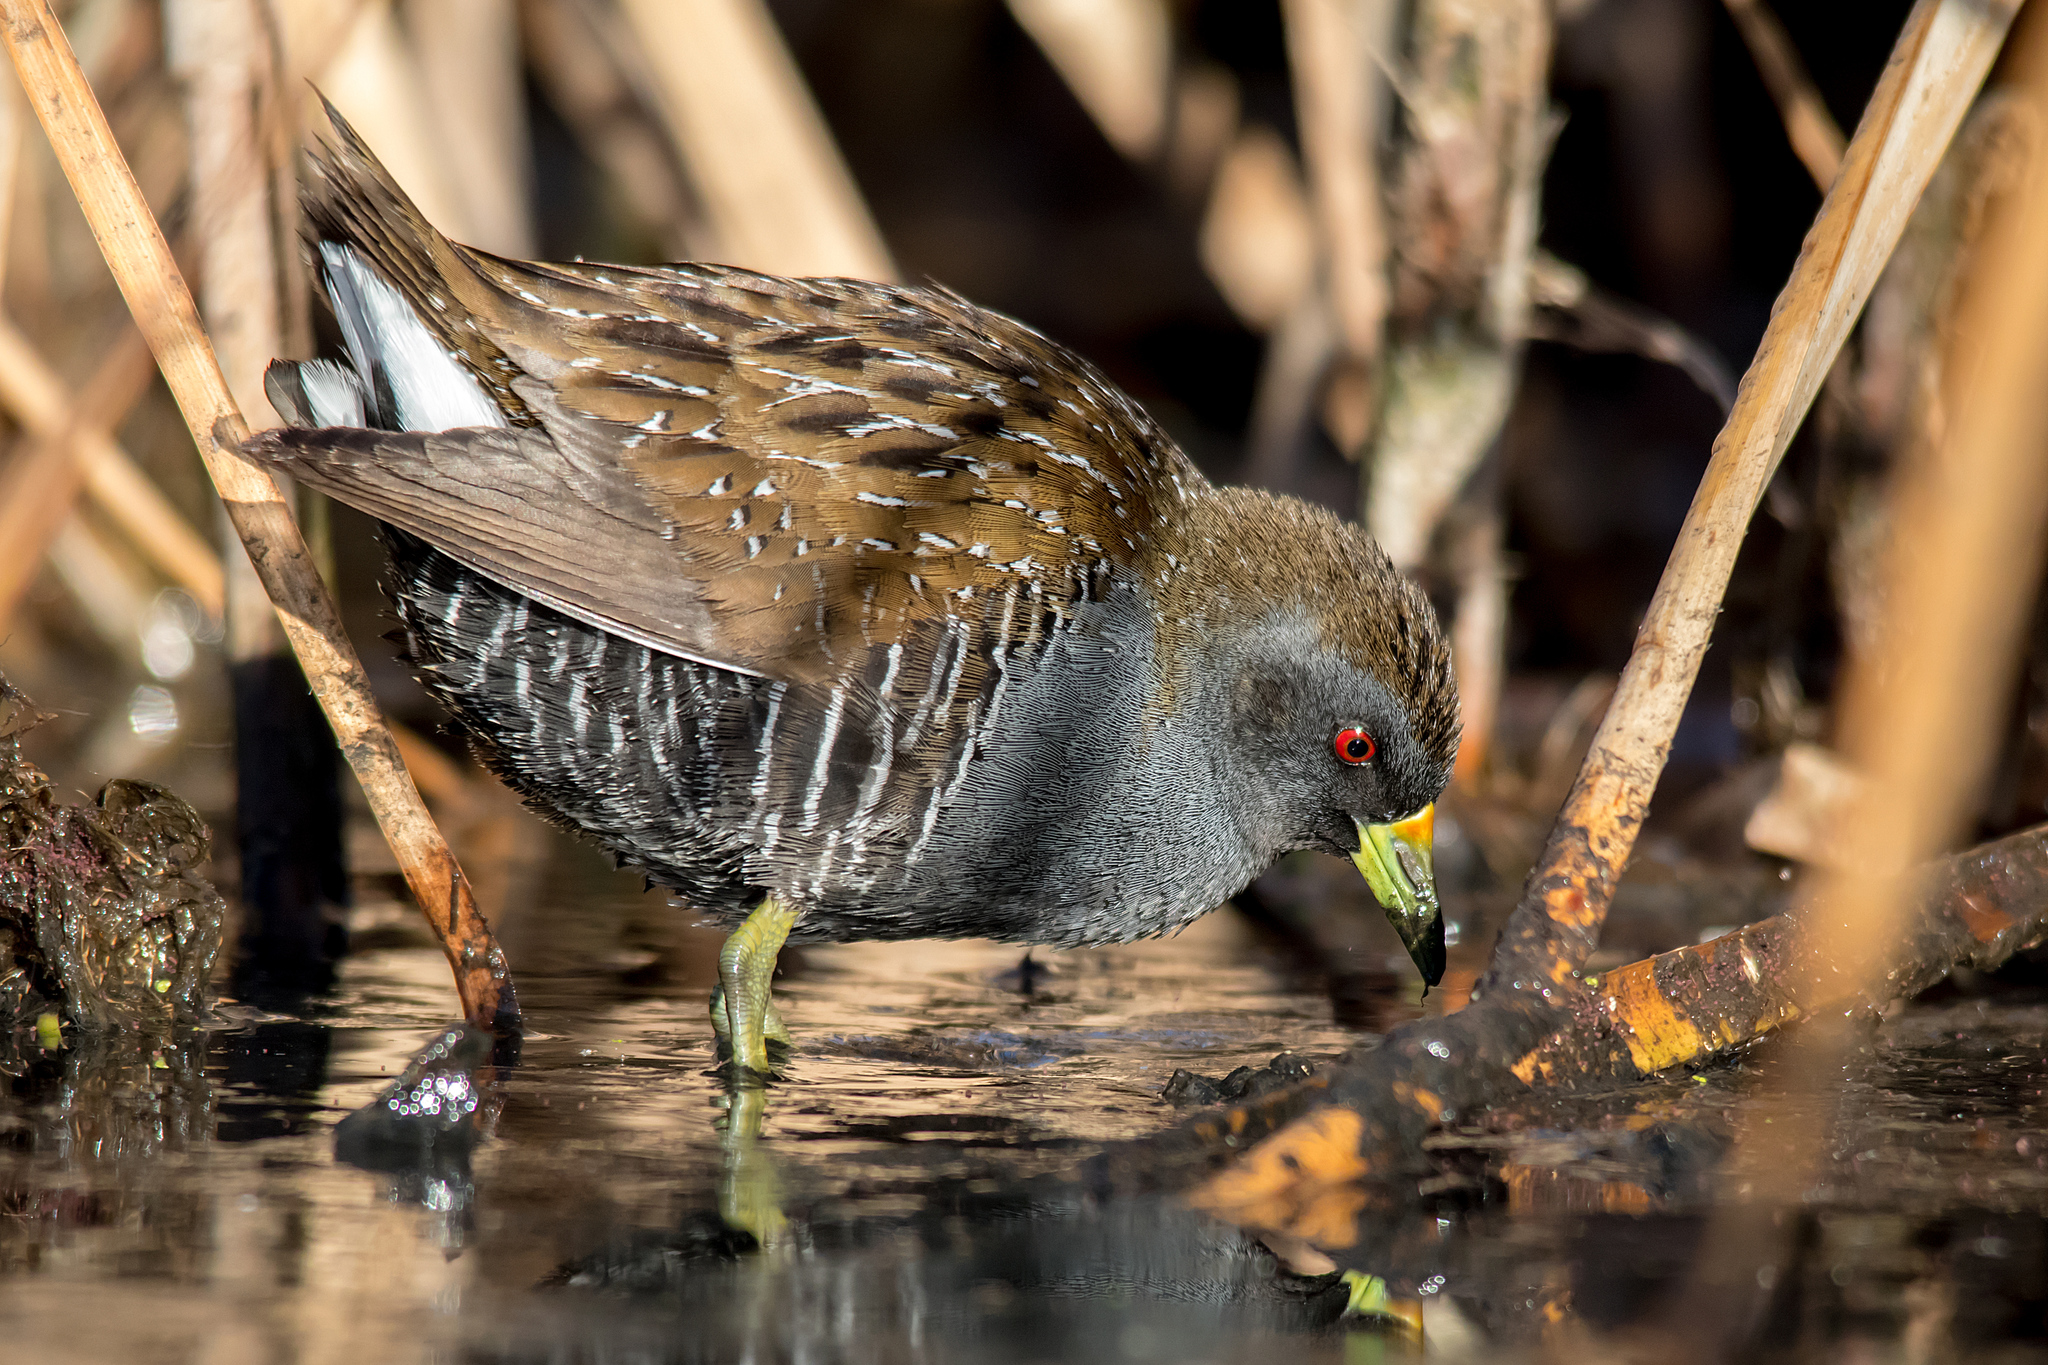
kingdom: Animalia
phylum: Chordata
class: Aves
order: Gruiformes
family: Rallidae
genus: Porzana
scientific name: Porzana fluminea
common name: Australian crake
